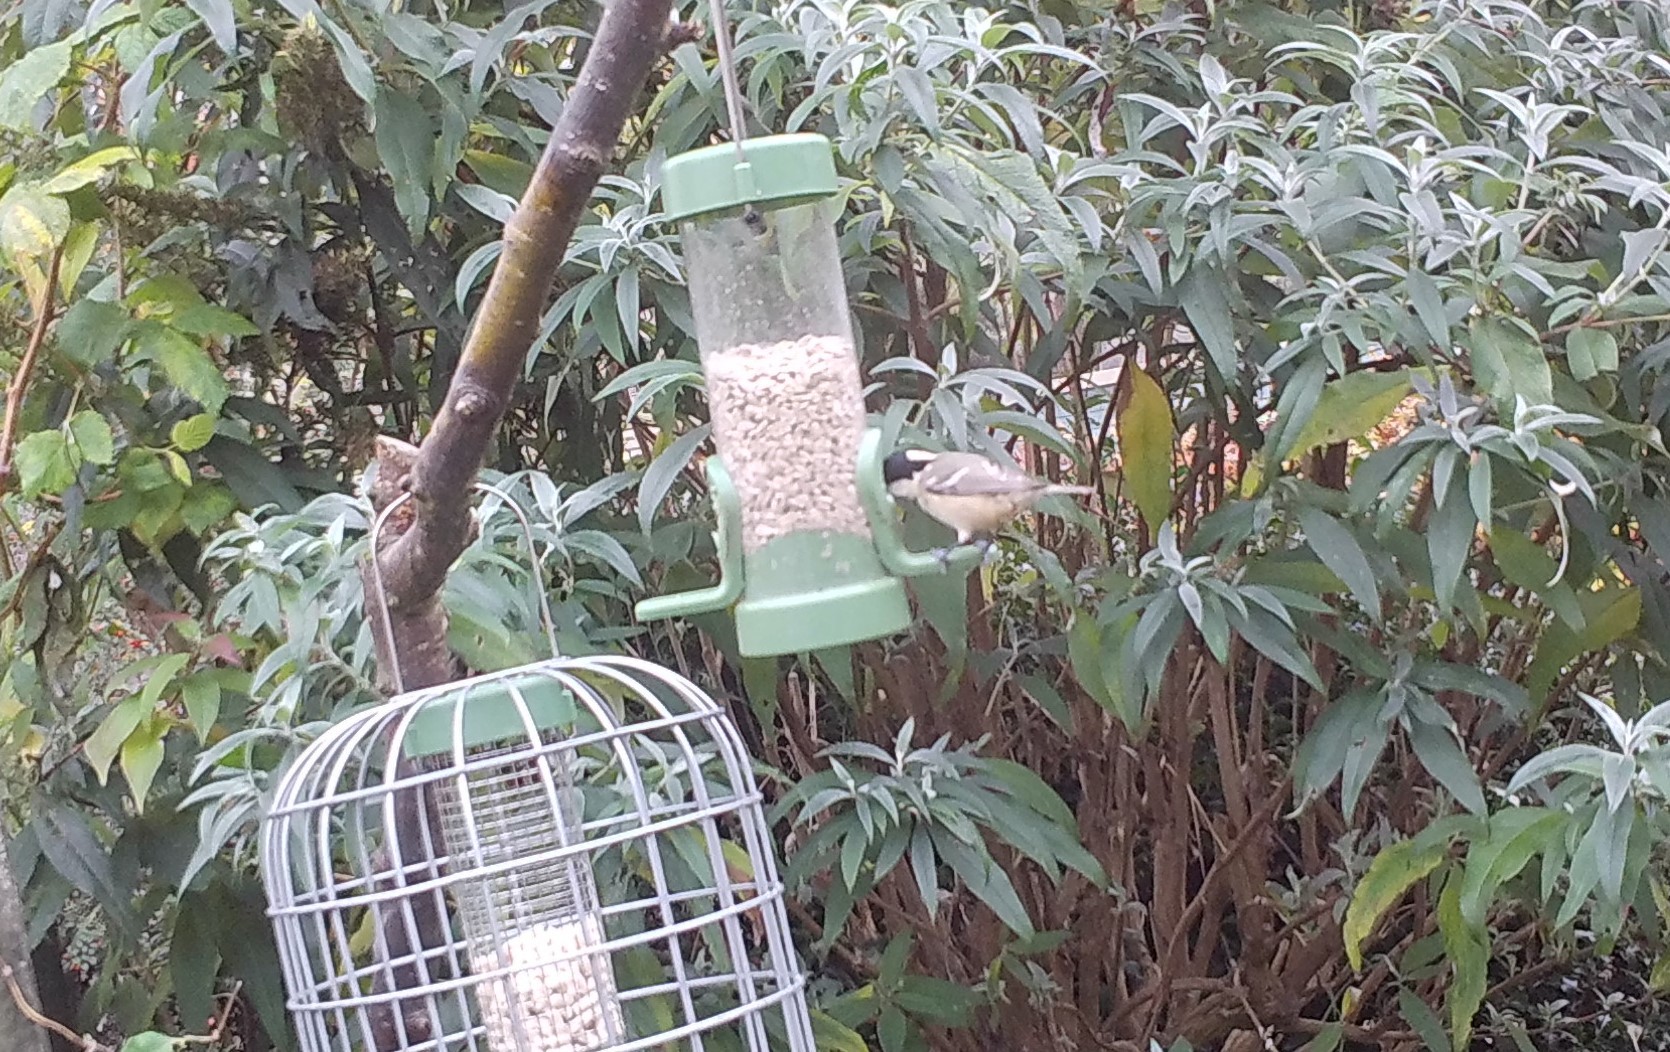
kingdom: Animalia
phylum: Chordata
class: Aves
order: Passeriformes
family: Paridae
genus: Periparus
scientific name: Periparus ater
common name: Coal tit
